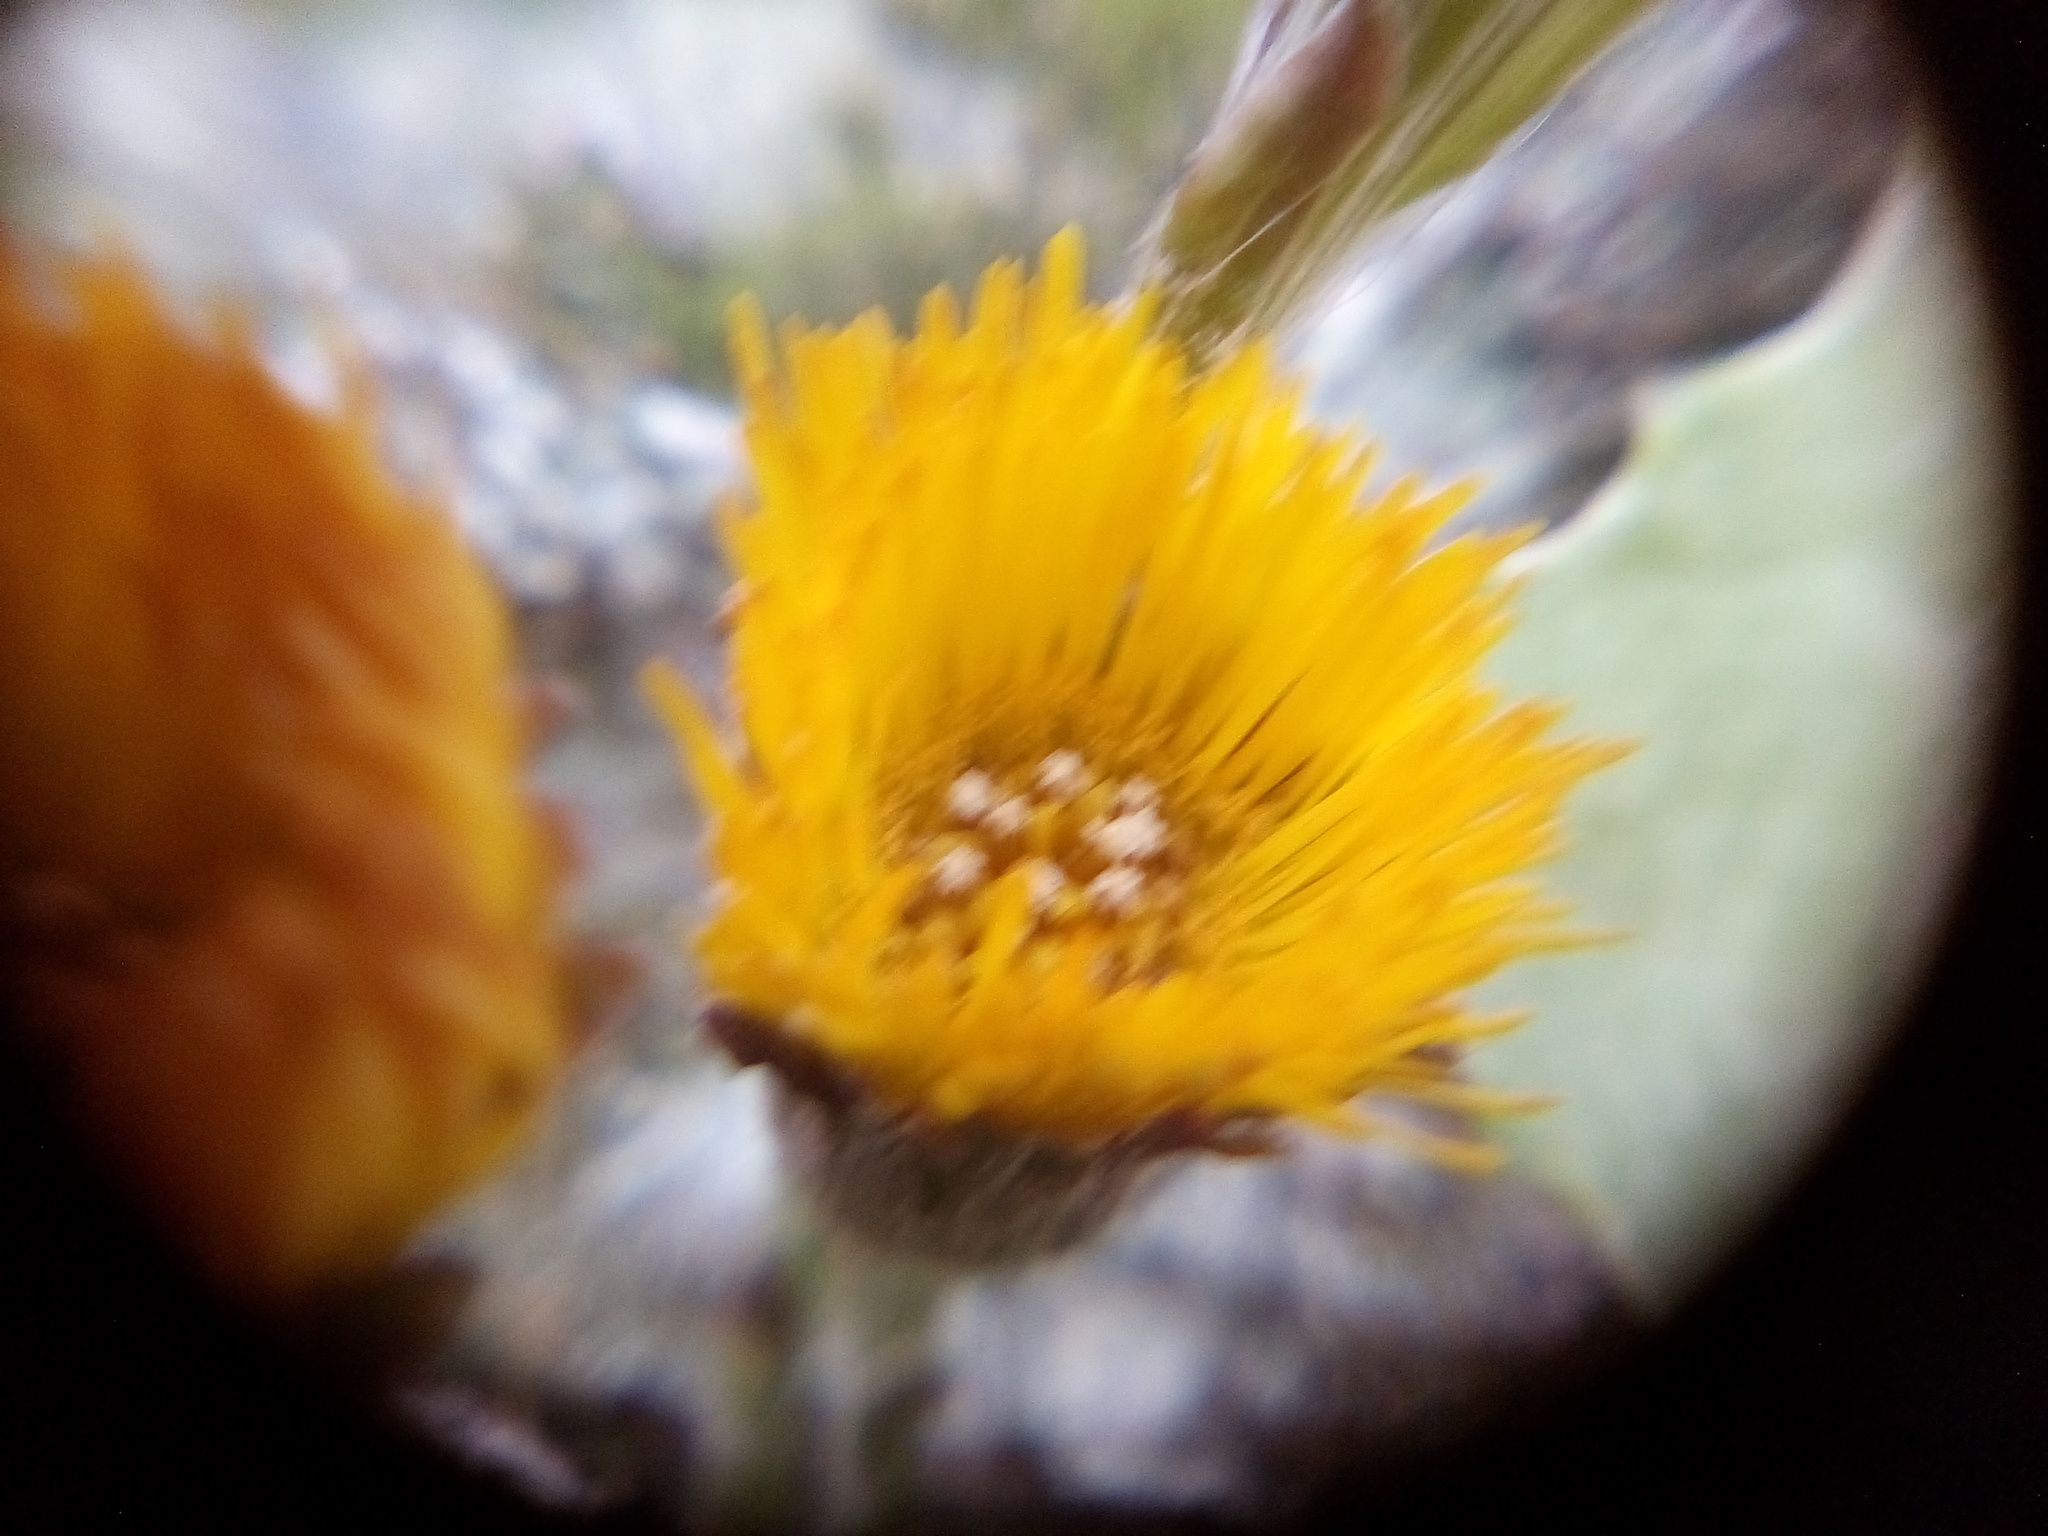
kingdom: Plantae
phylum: Tracheophyta
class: Magnoliopsida
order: Asterales
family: Asteraceae
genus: Tussilago
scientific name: Tussilago farfara
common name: Coltsfoot
